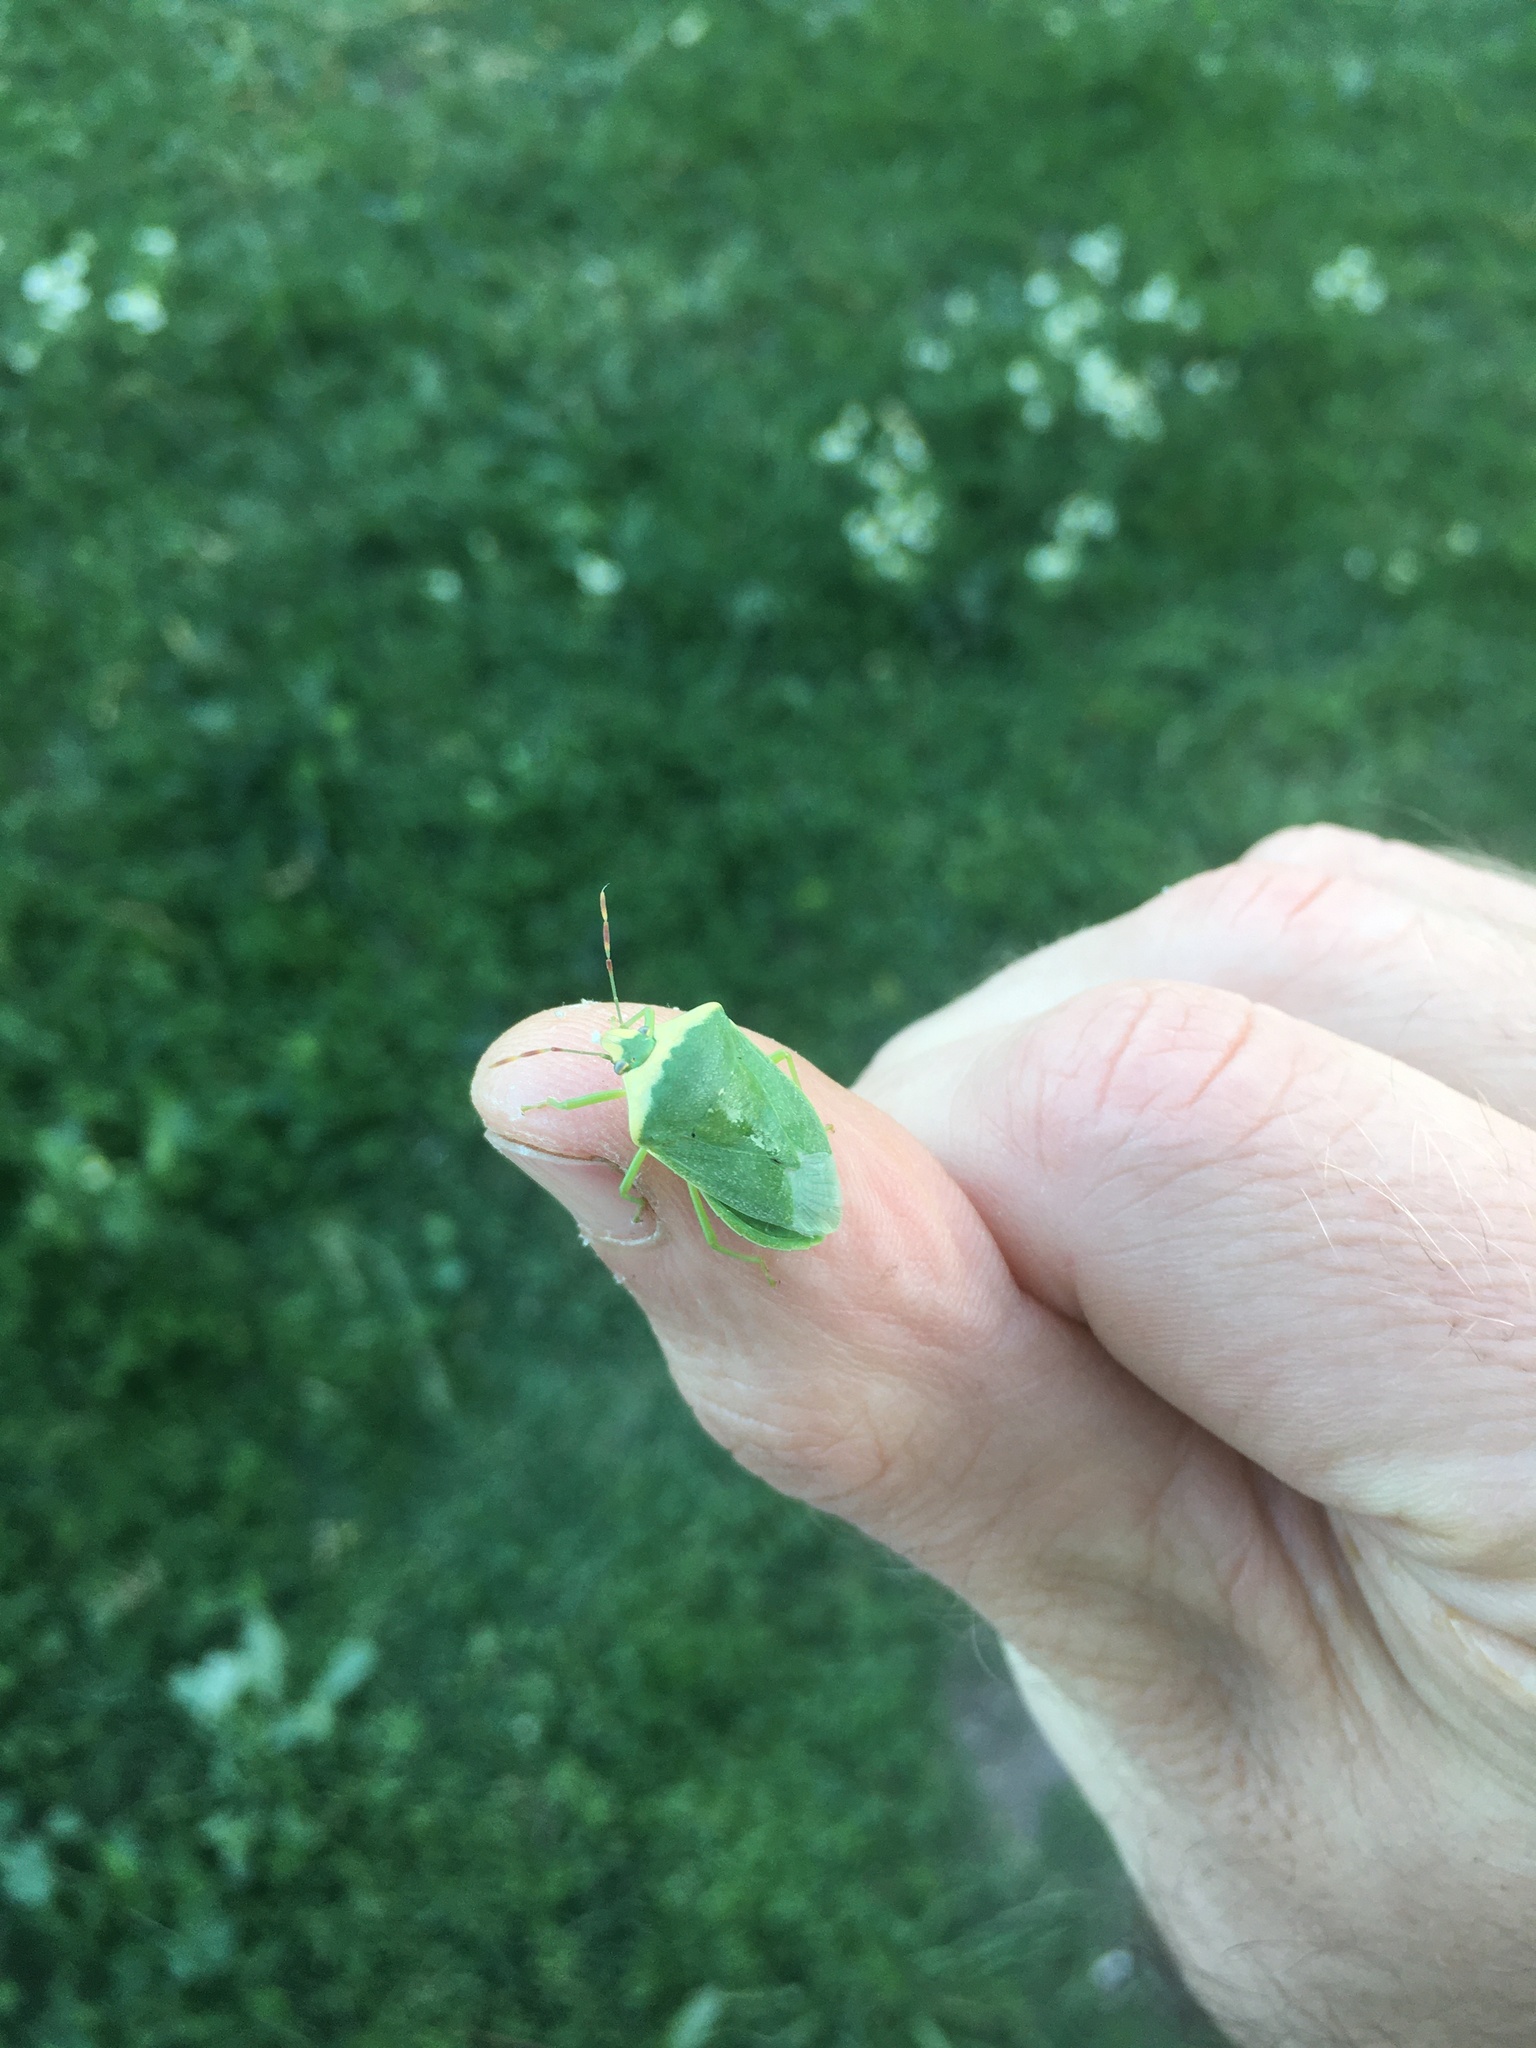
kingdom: Animalia
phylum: Arthropoda
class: Insecta
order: Hemiptera
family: Pentatomidae
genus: Nezara
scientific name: Nezara viridula
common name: Southern green stink bug
